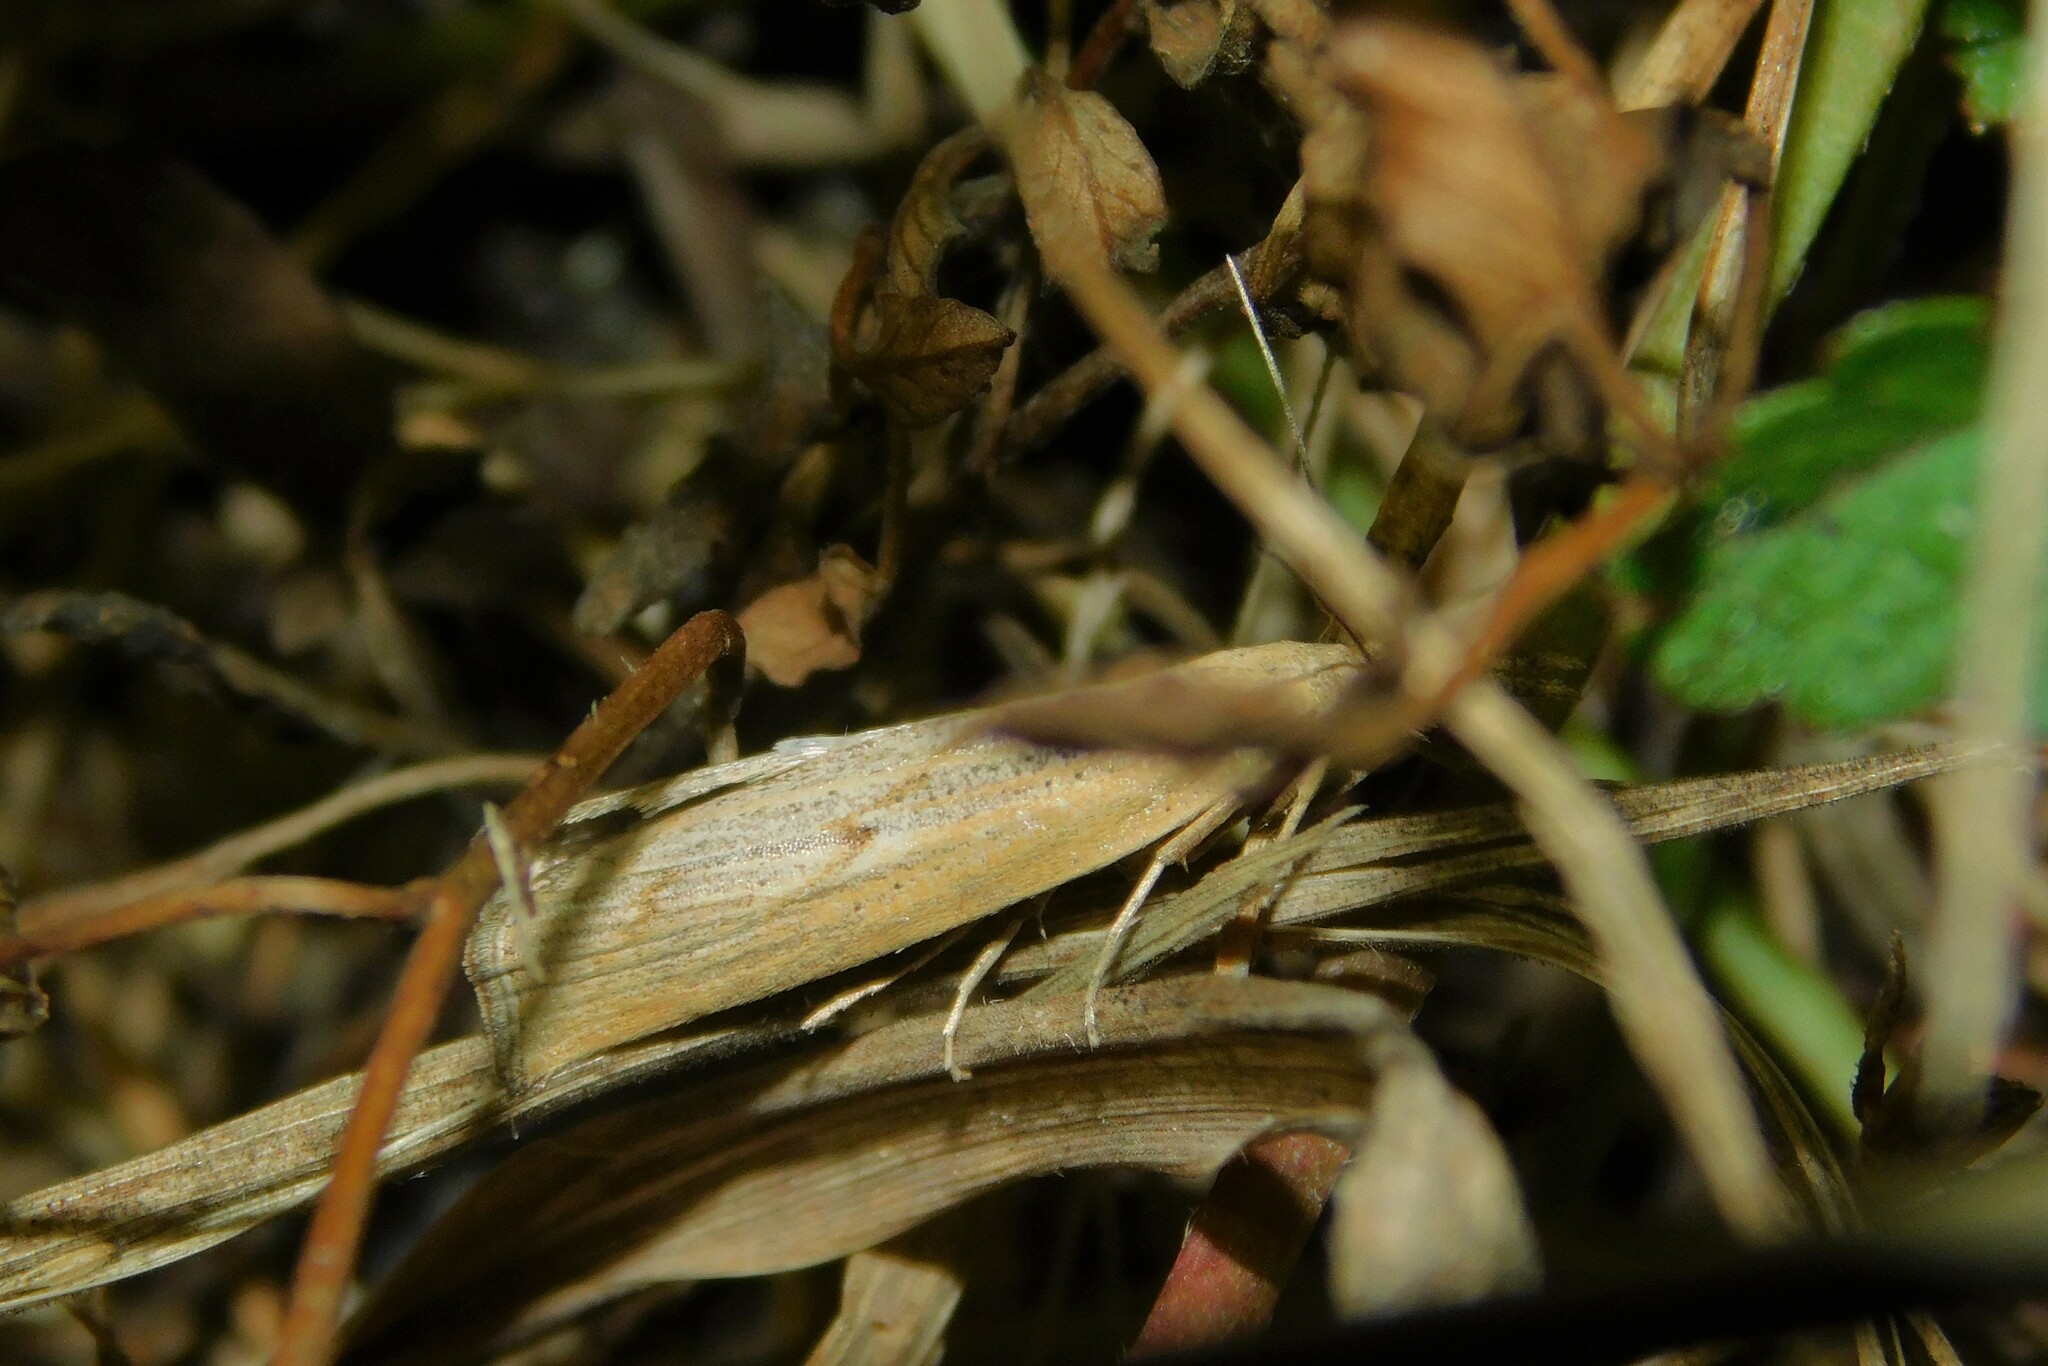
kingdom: Animalia
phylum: Arthropoda
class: Insecta
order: Lepidoptera
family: Crambidae
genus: Pediasia
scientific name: Pediasia contaminella
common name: Waste grass-veneer
